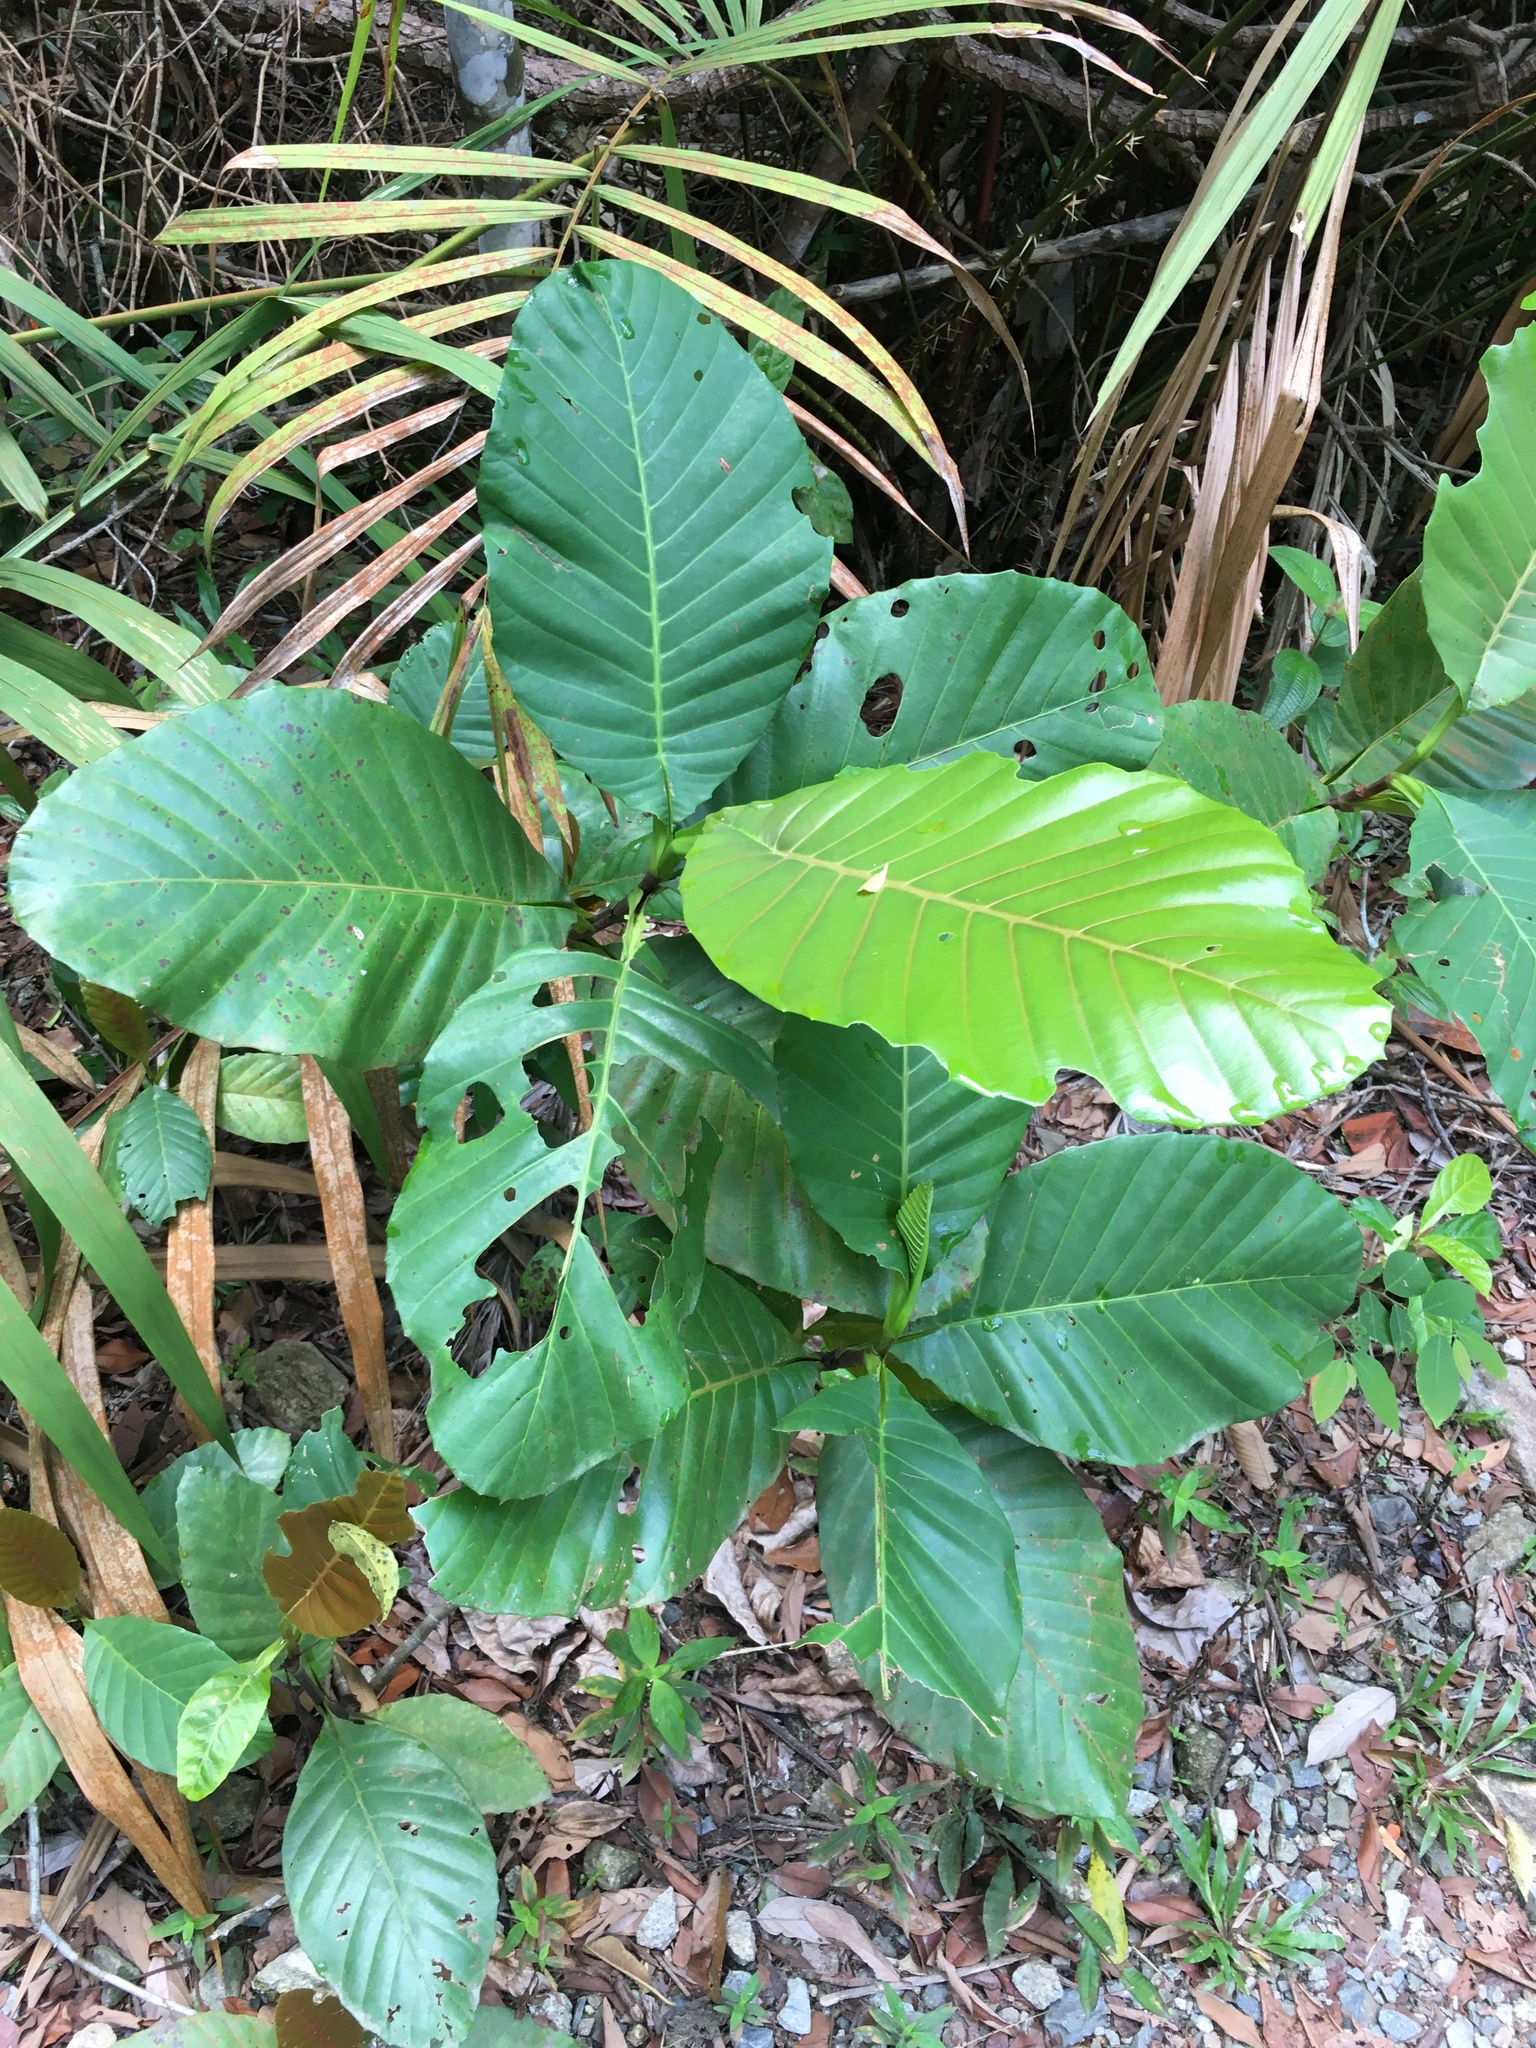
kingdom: Plantae
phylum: Tracheophyta
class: Magnoliopsida
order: Dilleniales
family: Dilleniaceae
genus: Dillenia
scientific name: Dillenia suffruticosa
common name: Shrubby dillenia
